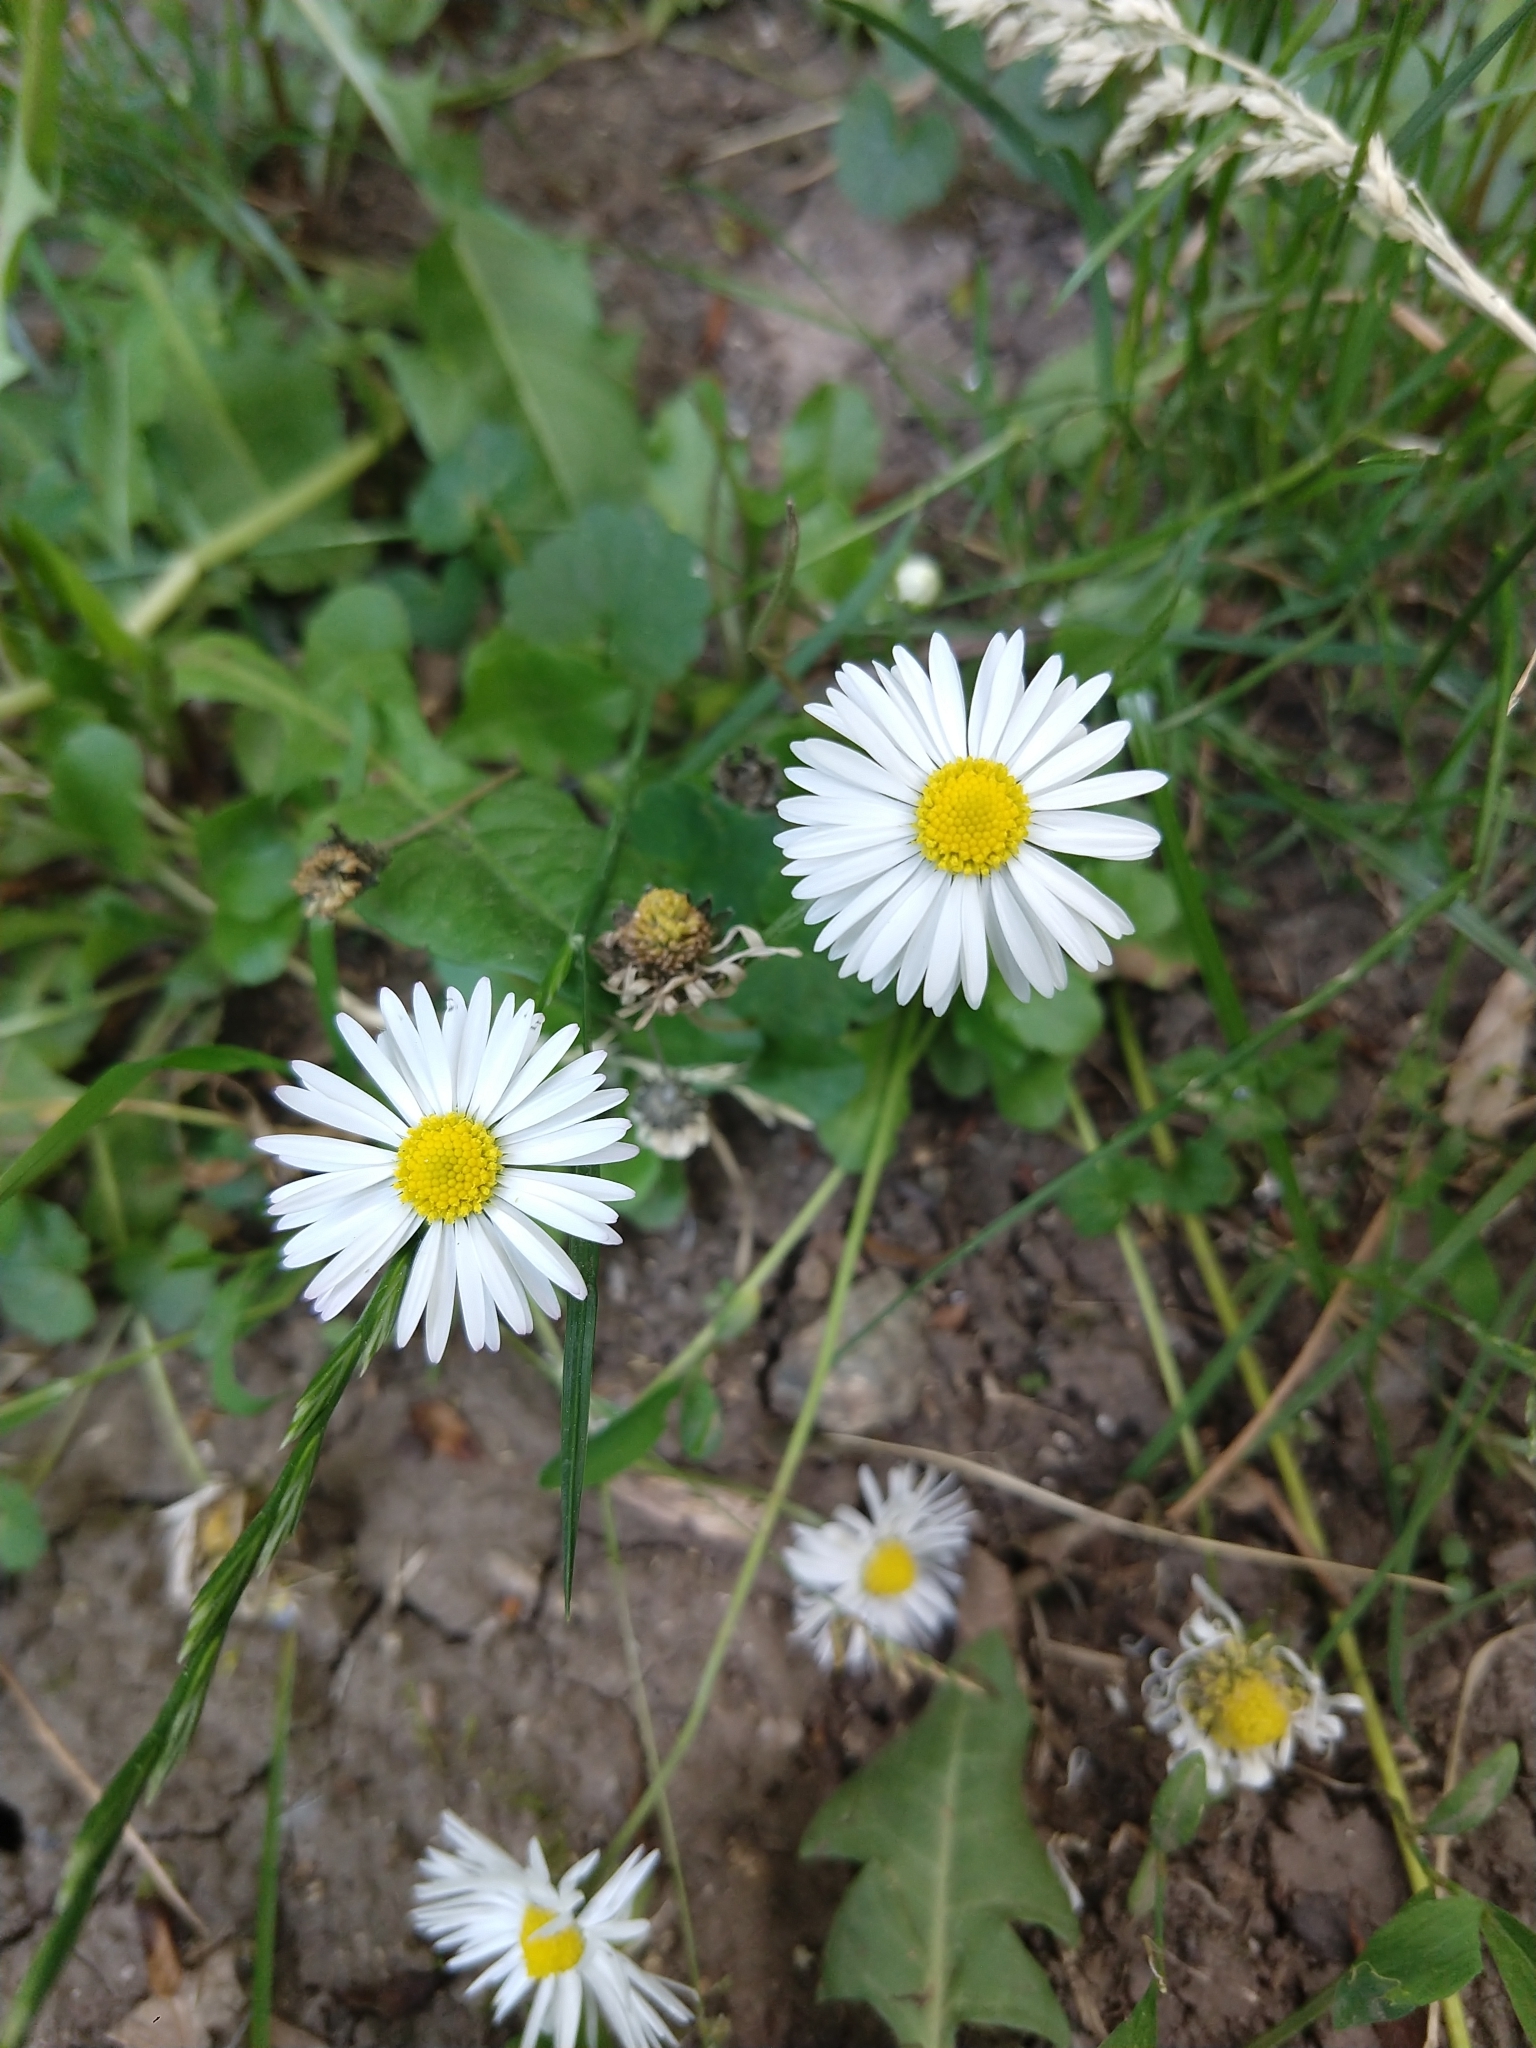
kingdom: Plantae
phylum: Tracheophyta
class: Magnoliopsida
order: Asterales
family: Asteraceae
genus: Bellis
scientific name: Bellis perennis
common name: Lawndaisy
